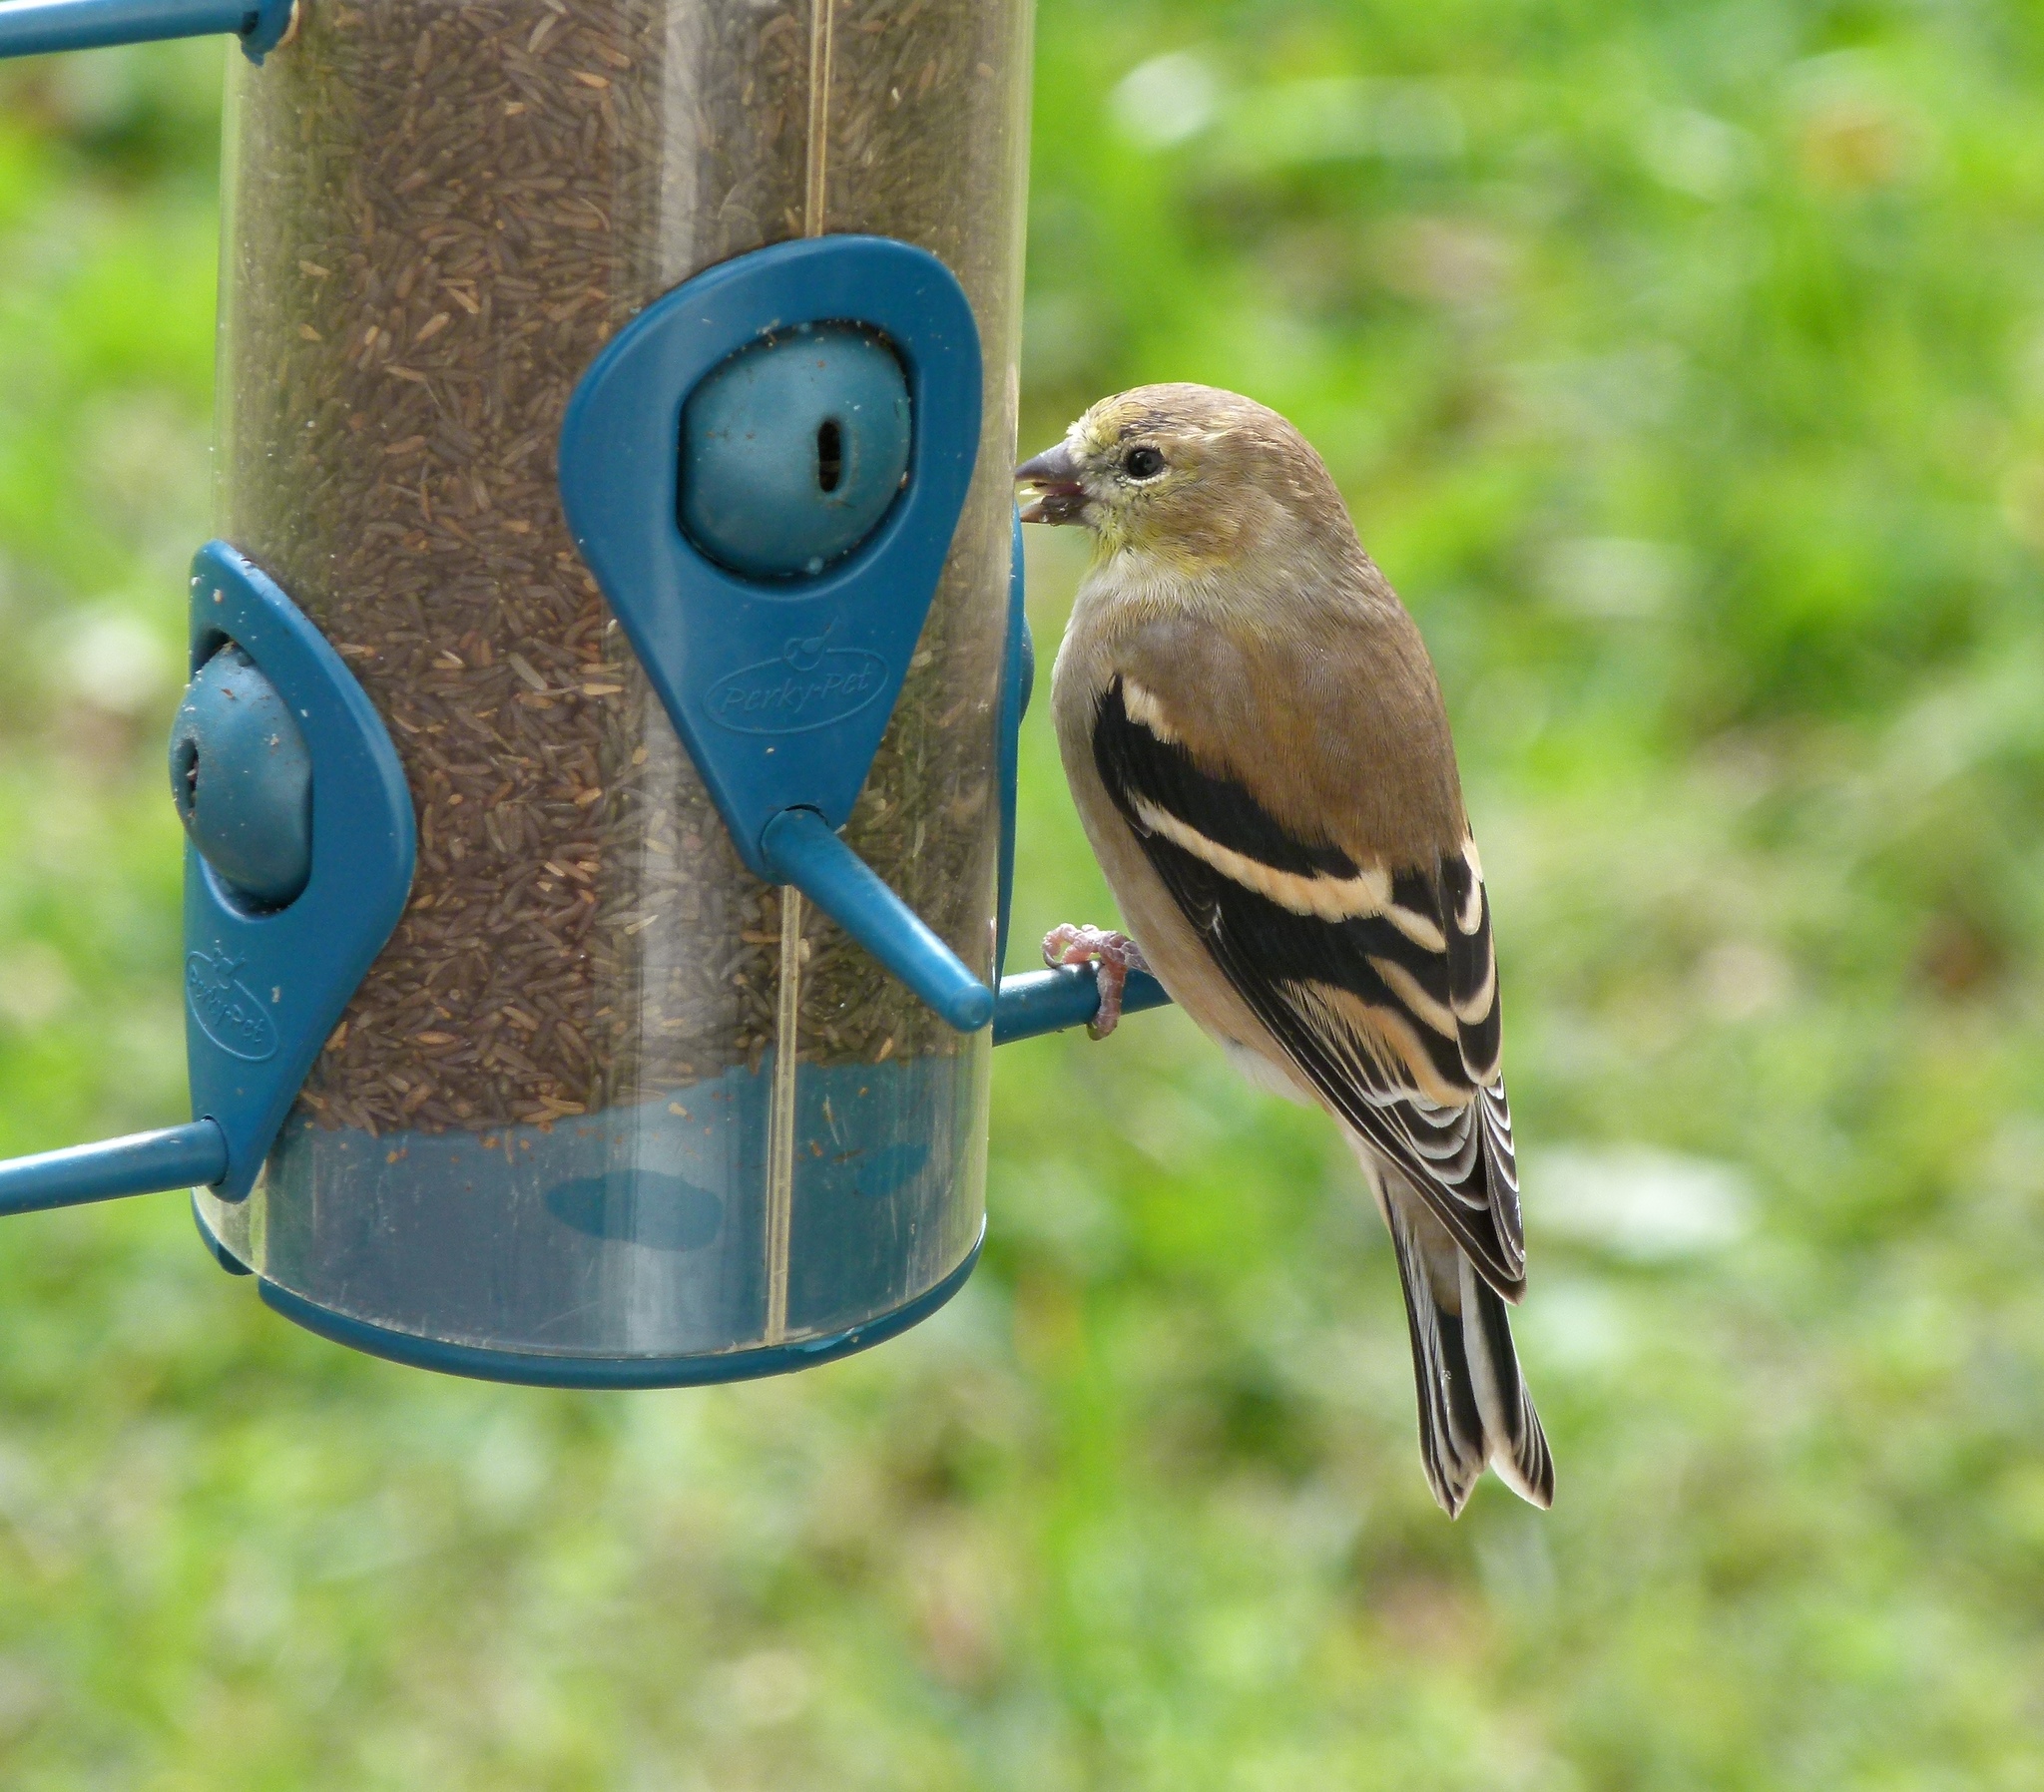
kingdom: Animalia
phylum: Chordata
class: Aves
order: Passeriformes
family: Fringillidae
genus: Spinus
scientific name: Spinus tristis
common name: American goldfinch
